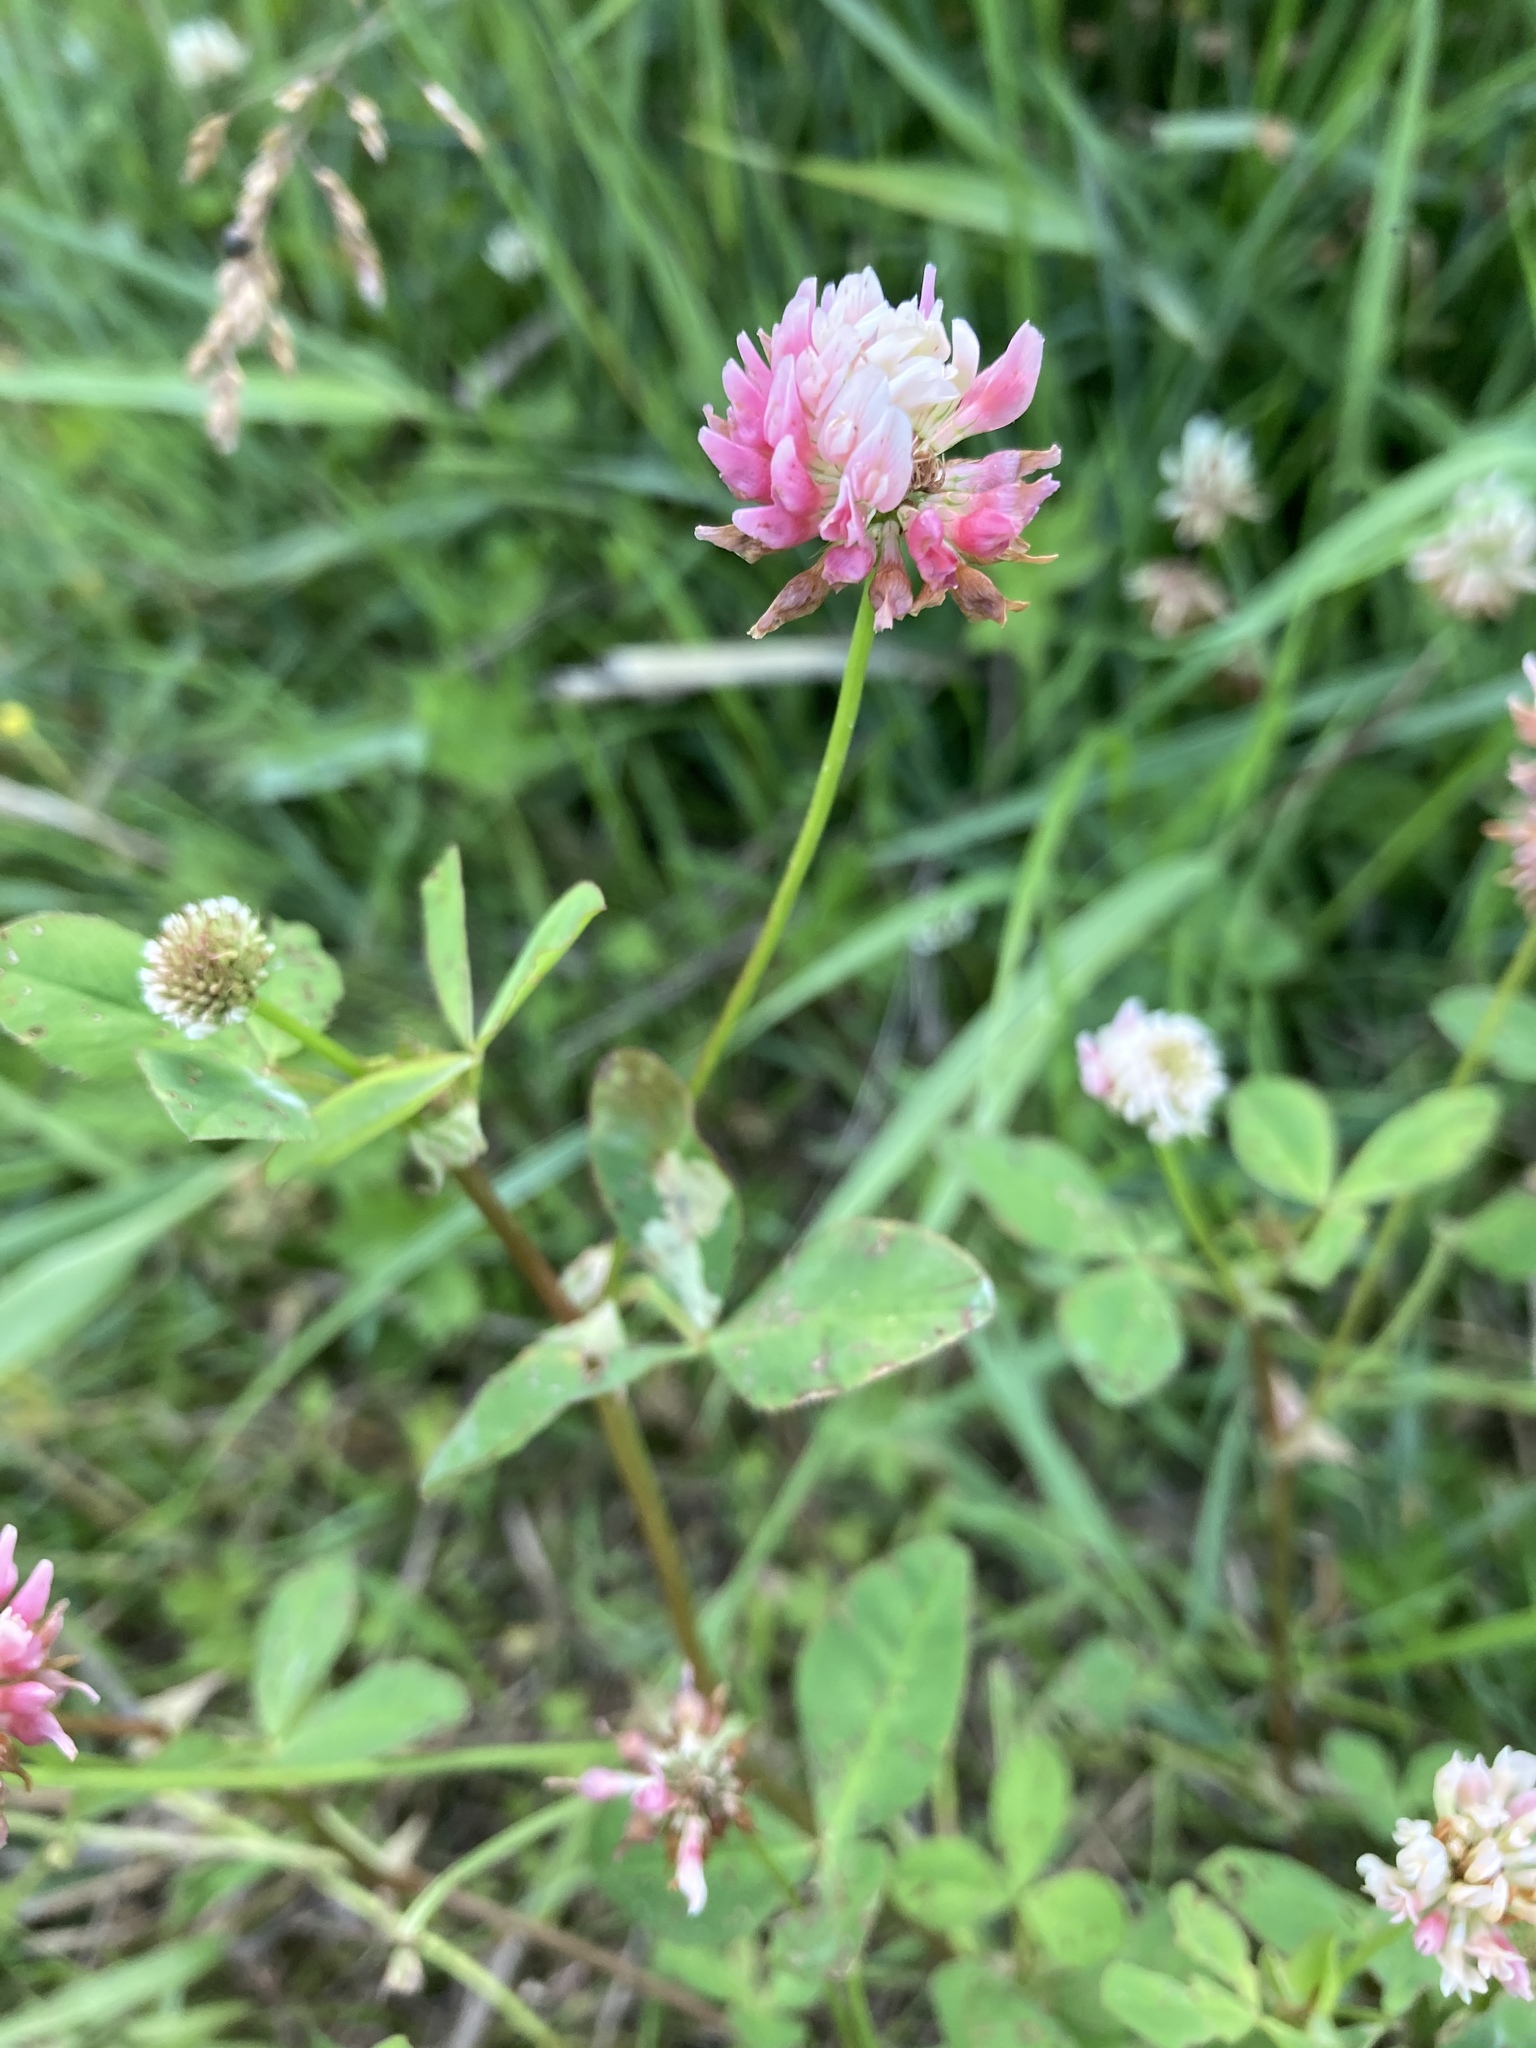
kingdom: Plantae
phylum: Tracheophyta
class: Magnoliopsida
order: Fabales
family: Fabaceae
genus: Trifolium
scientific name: Trifolium hybridum
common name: Alsike clover
